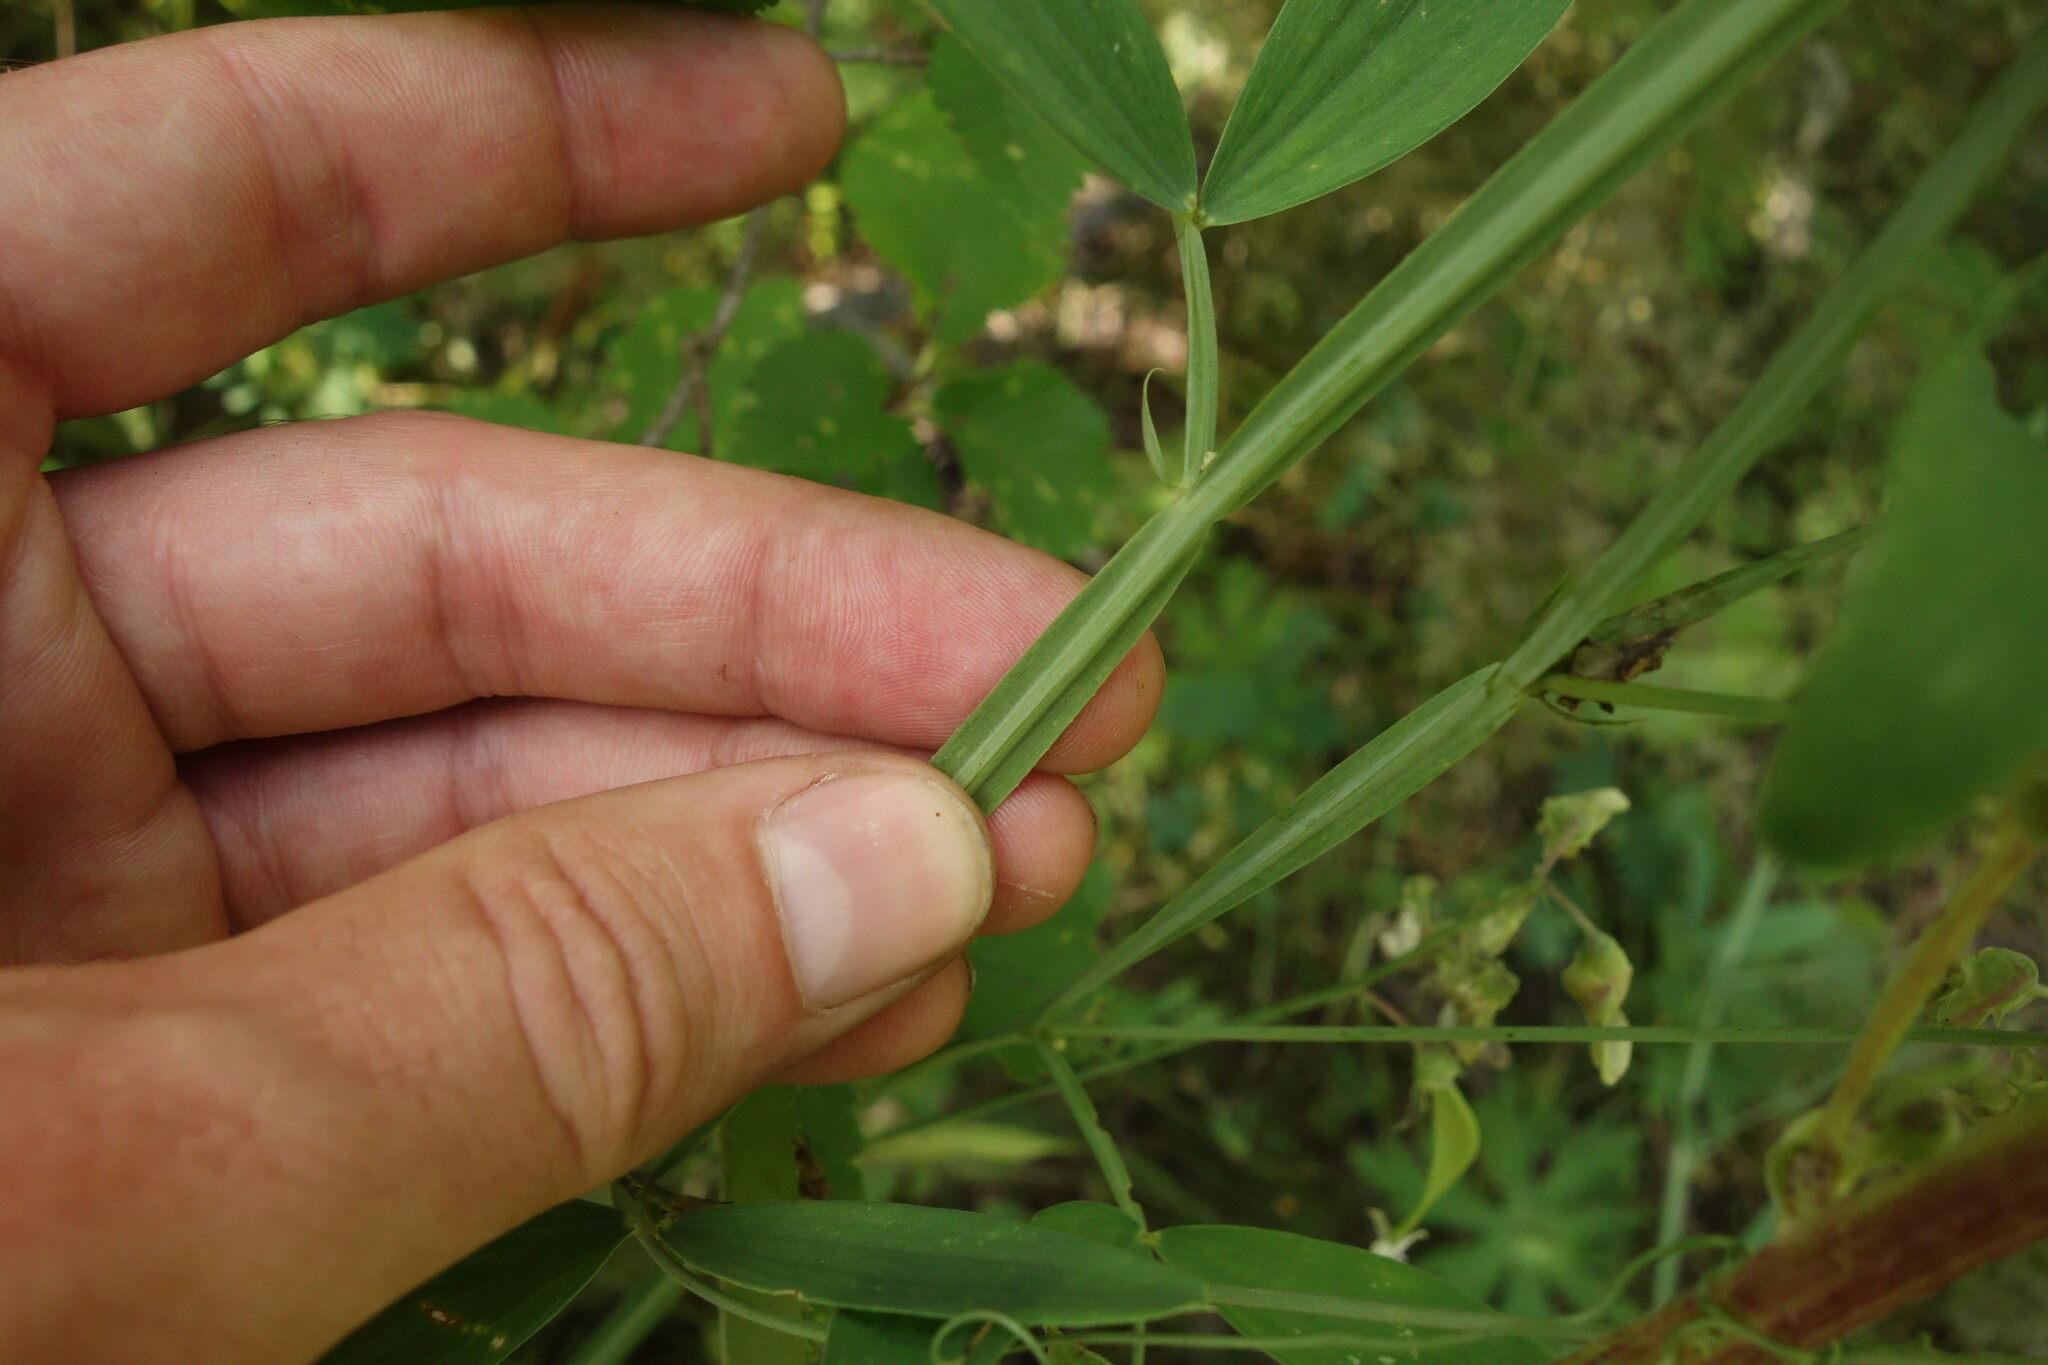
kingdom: Plantae
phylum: Tracheophyta
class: Magnoliopsida
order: Fabales
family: Fabaceae
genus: Lathyrus
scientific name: Lathyrus sylvestris
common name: Flat pea
